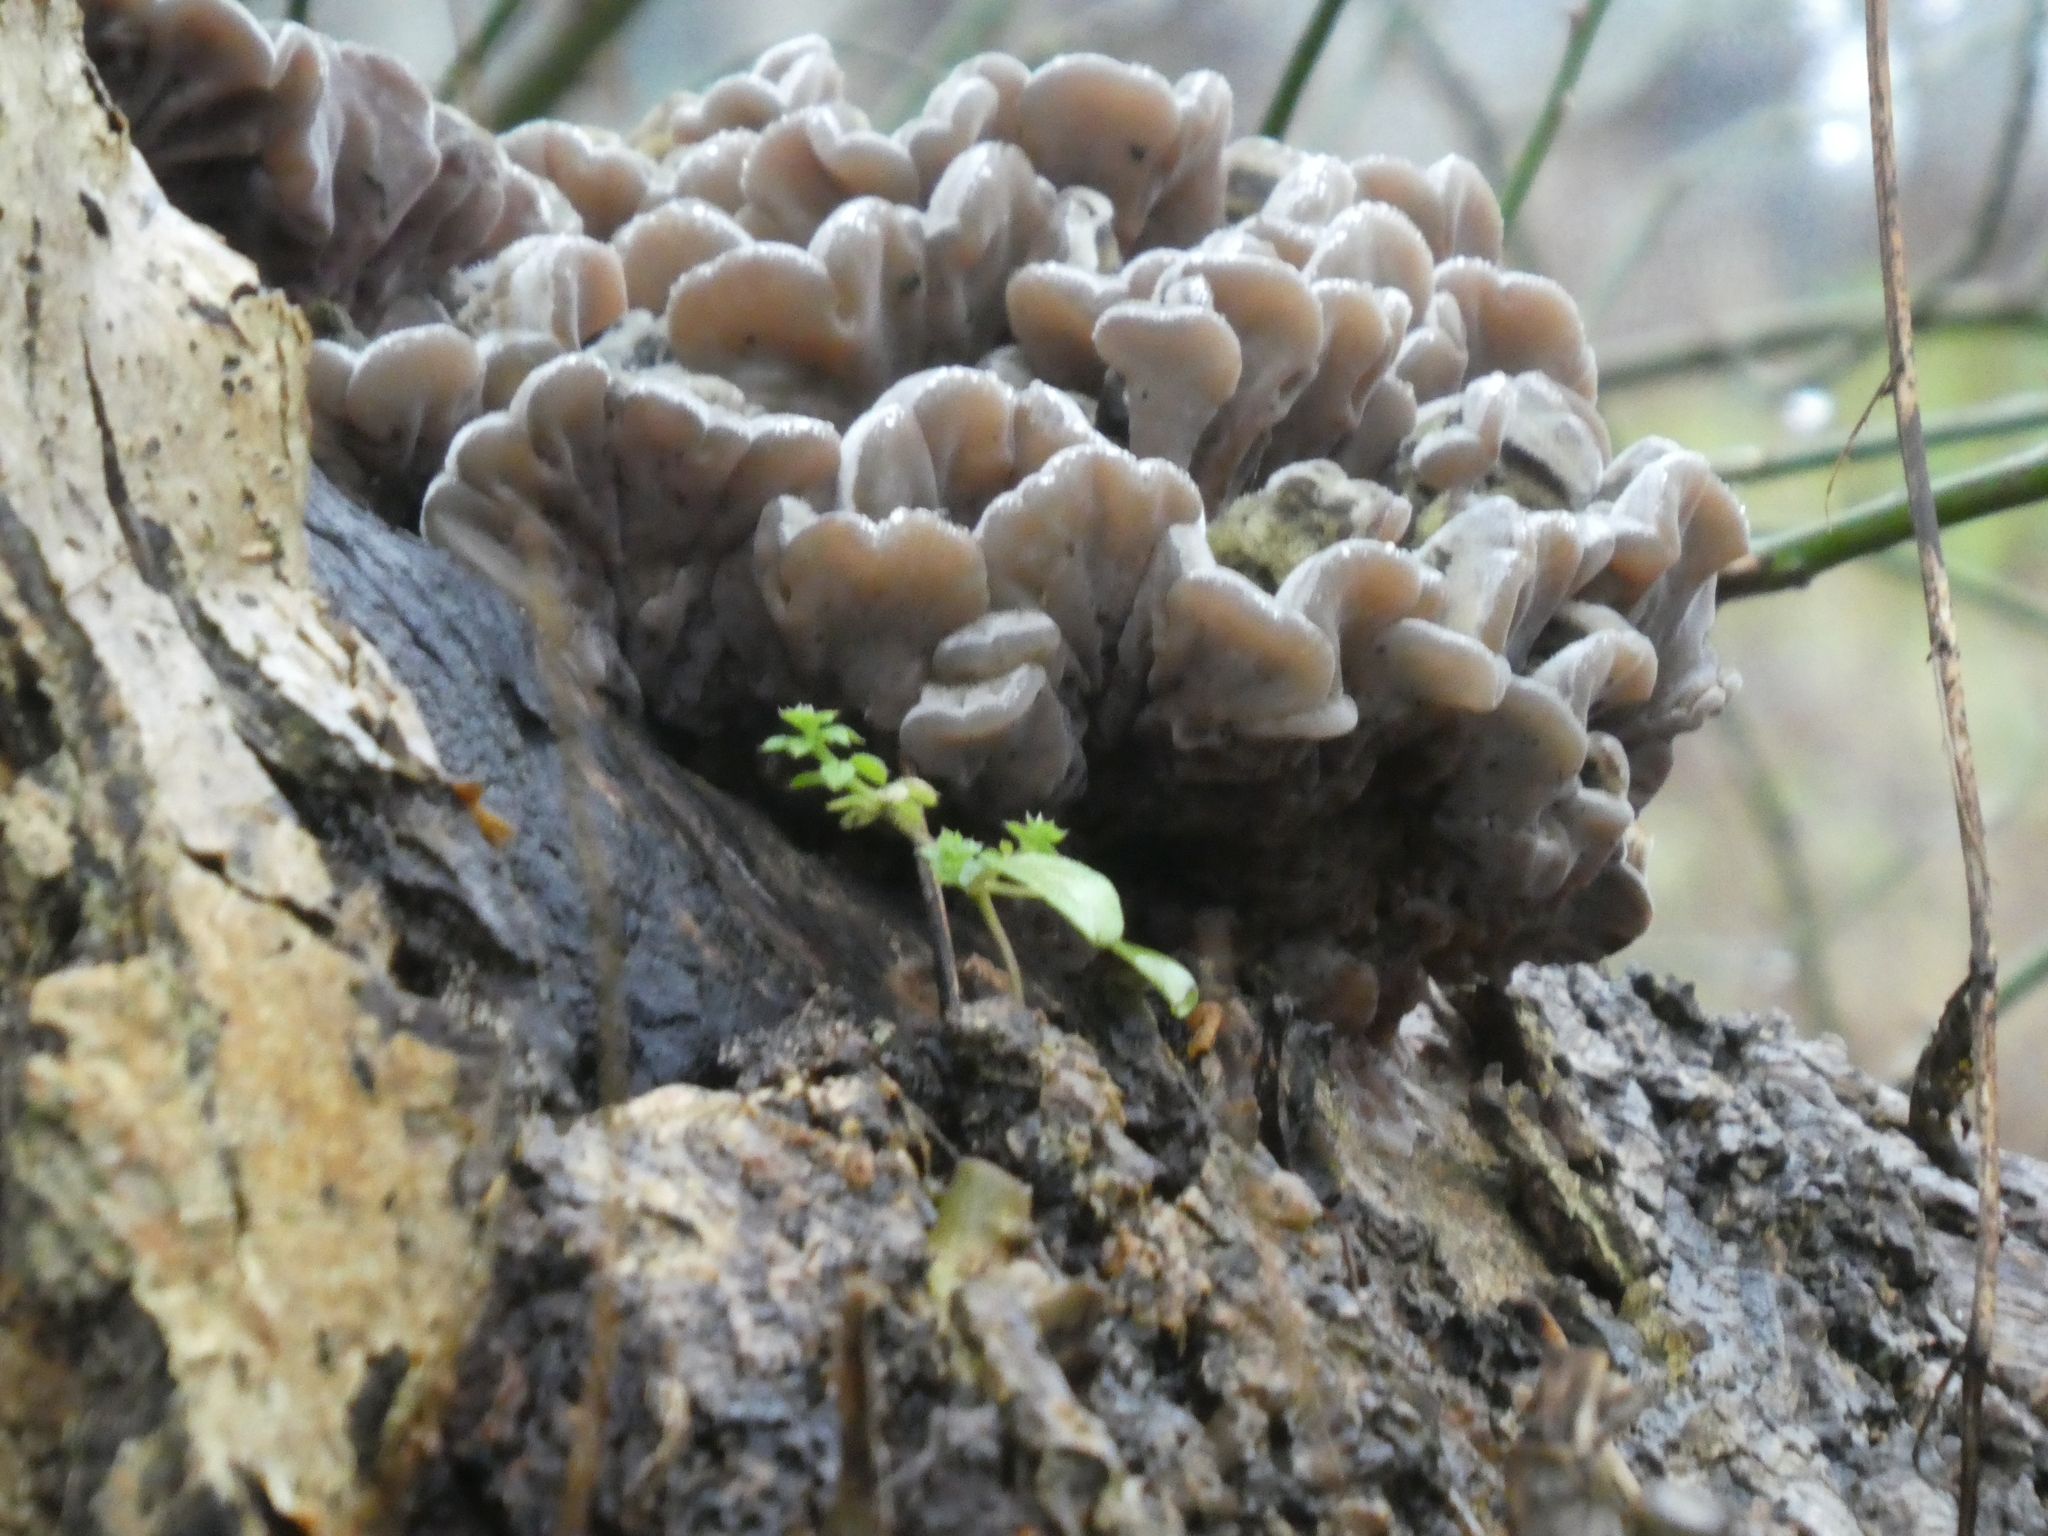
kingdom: Fungi
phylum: Basidiomycota
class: Agaricomycetes
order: Auriculariales
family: Auriculariaceae
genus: Auricularia
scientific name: Auricularia mesenterica
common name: Tripe fungus
